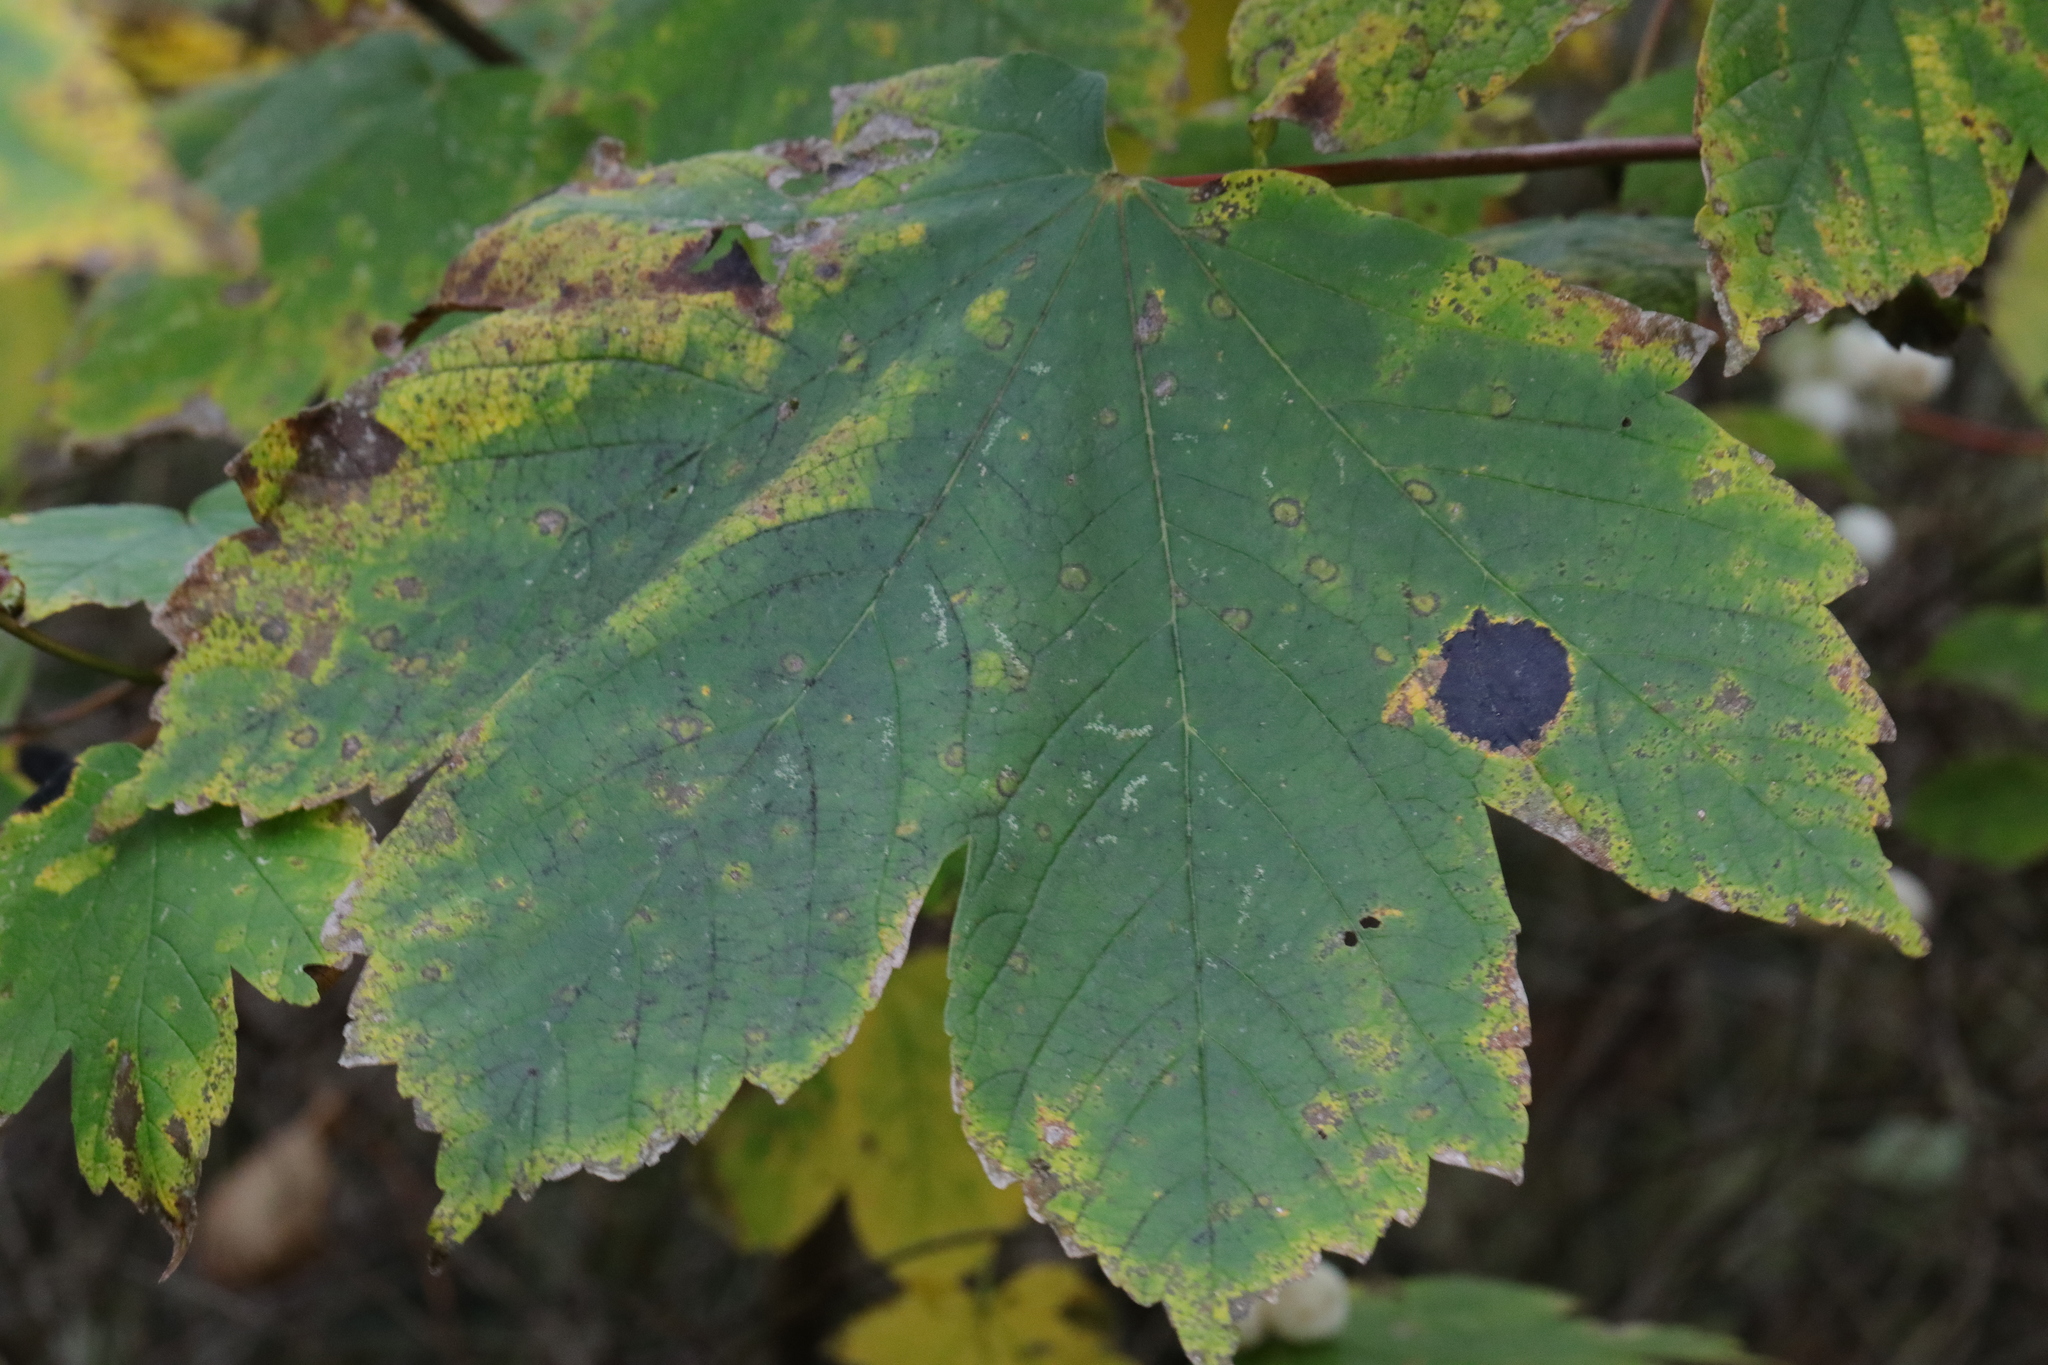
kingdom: Plantae
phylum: Tracheophyta
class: Magnoliopsida
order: Sapindales
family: Sapindaceae
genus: Acer
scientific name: Acer pseudoplatanus
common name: Sycamore
